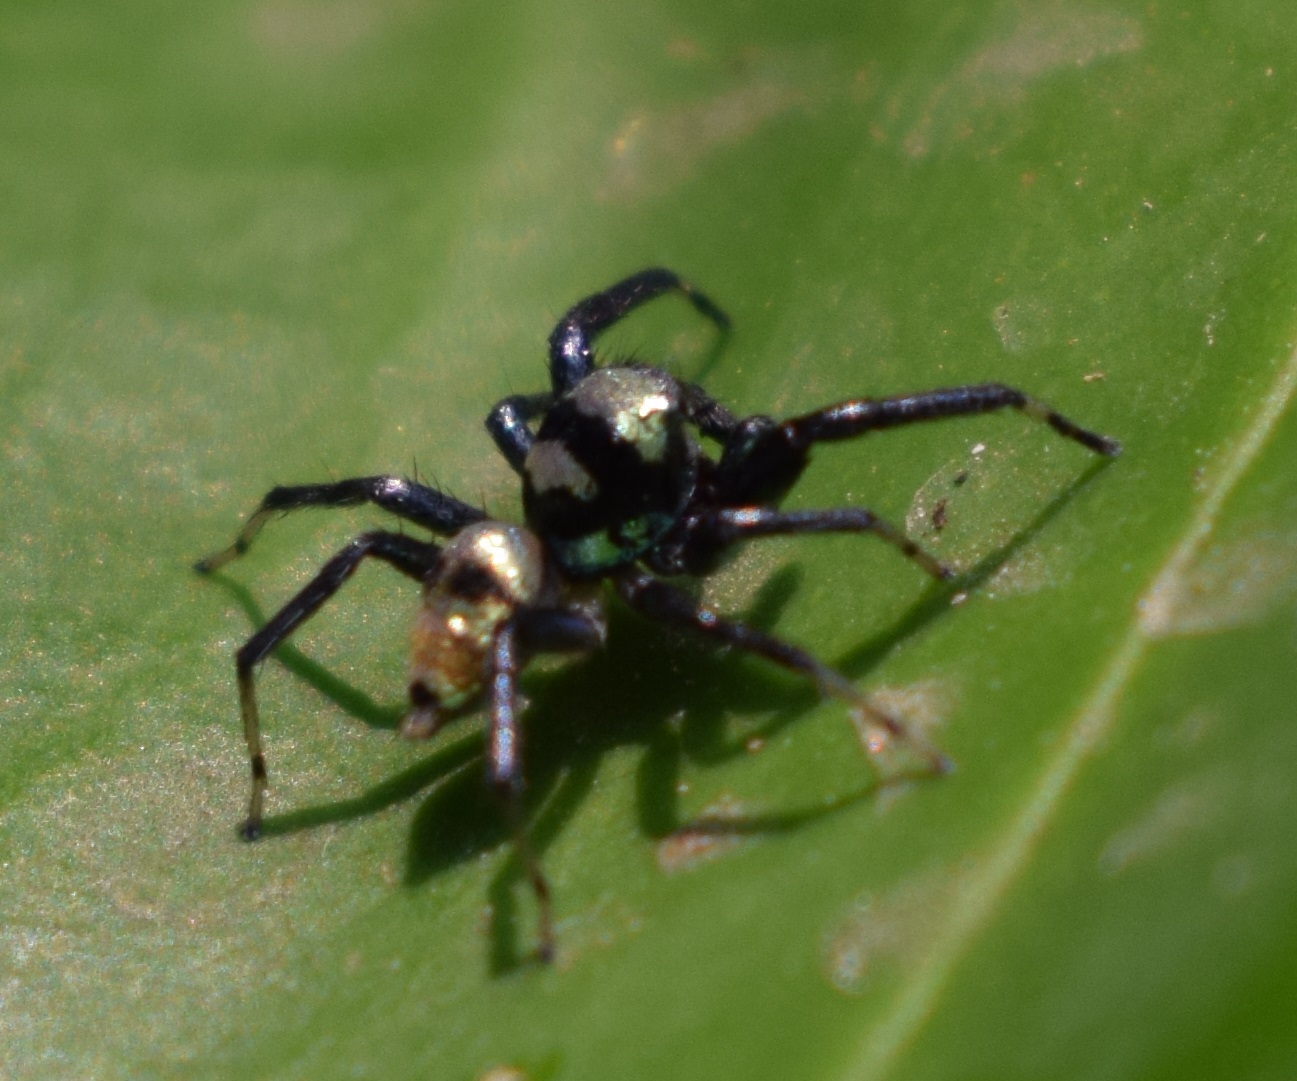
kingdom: Animalia
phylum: Arthropoda
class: Arachnida
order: Araneae
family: Salticidae
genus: Phintella
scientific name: Phintella vittata
